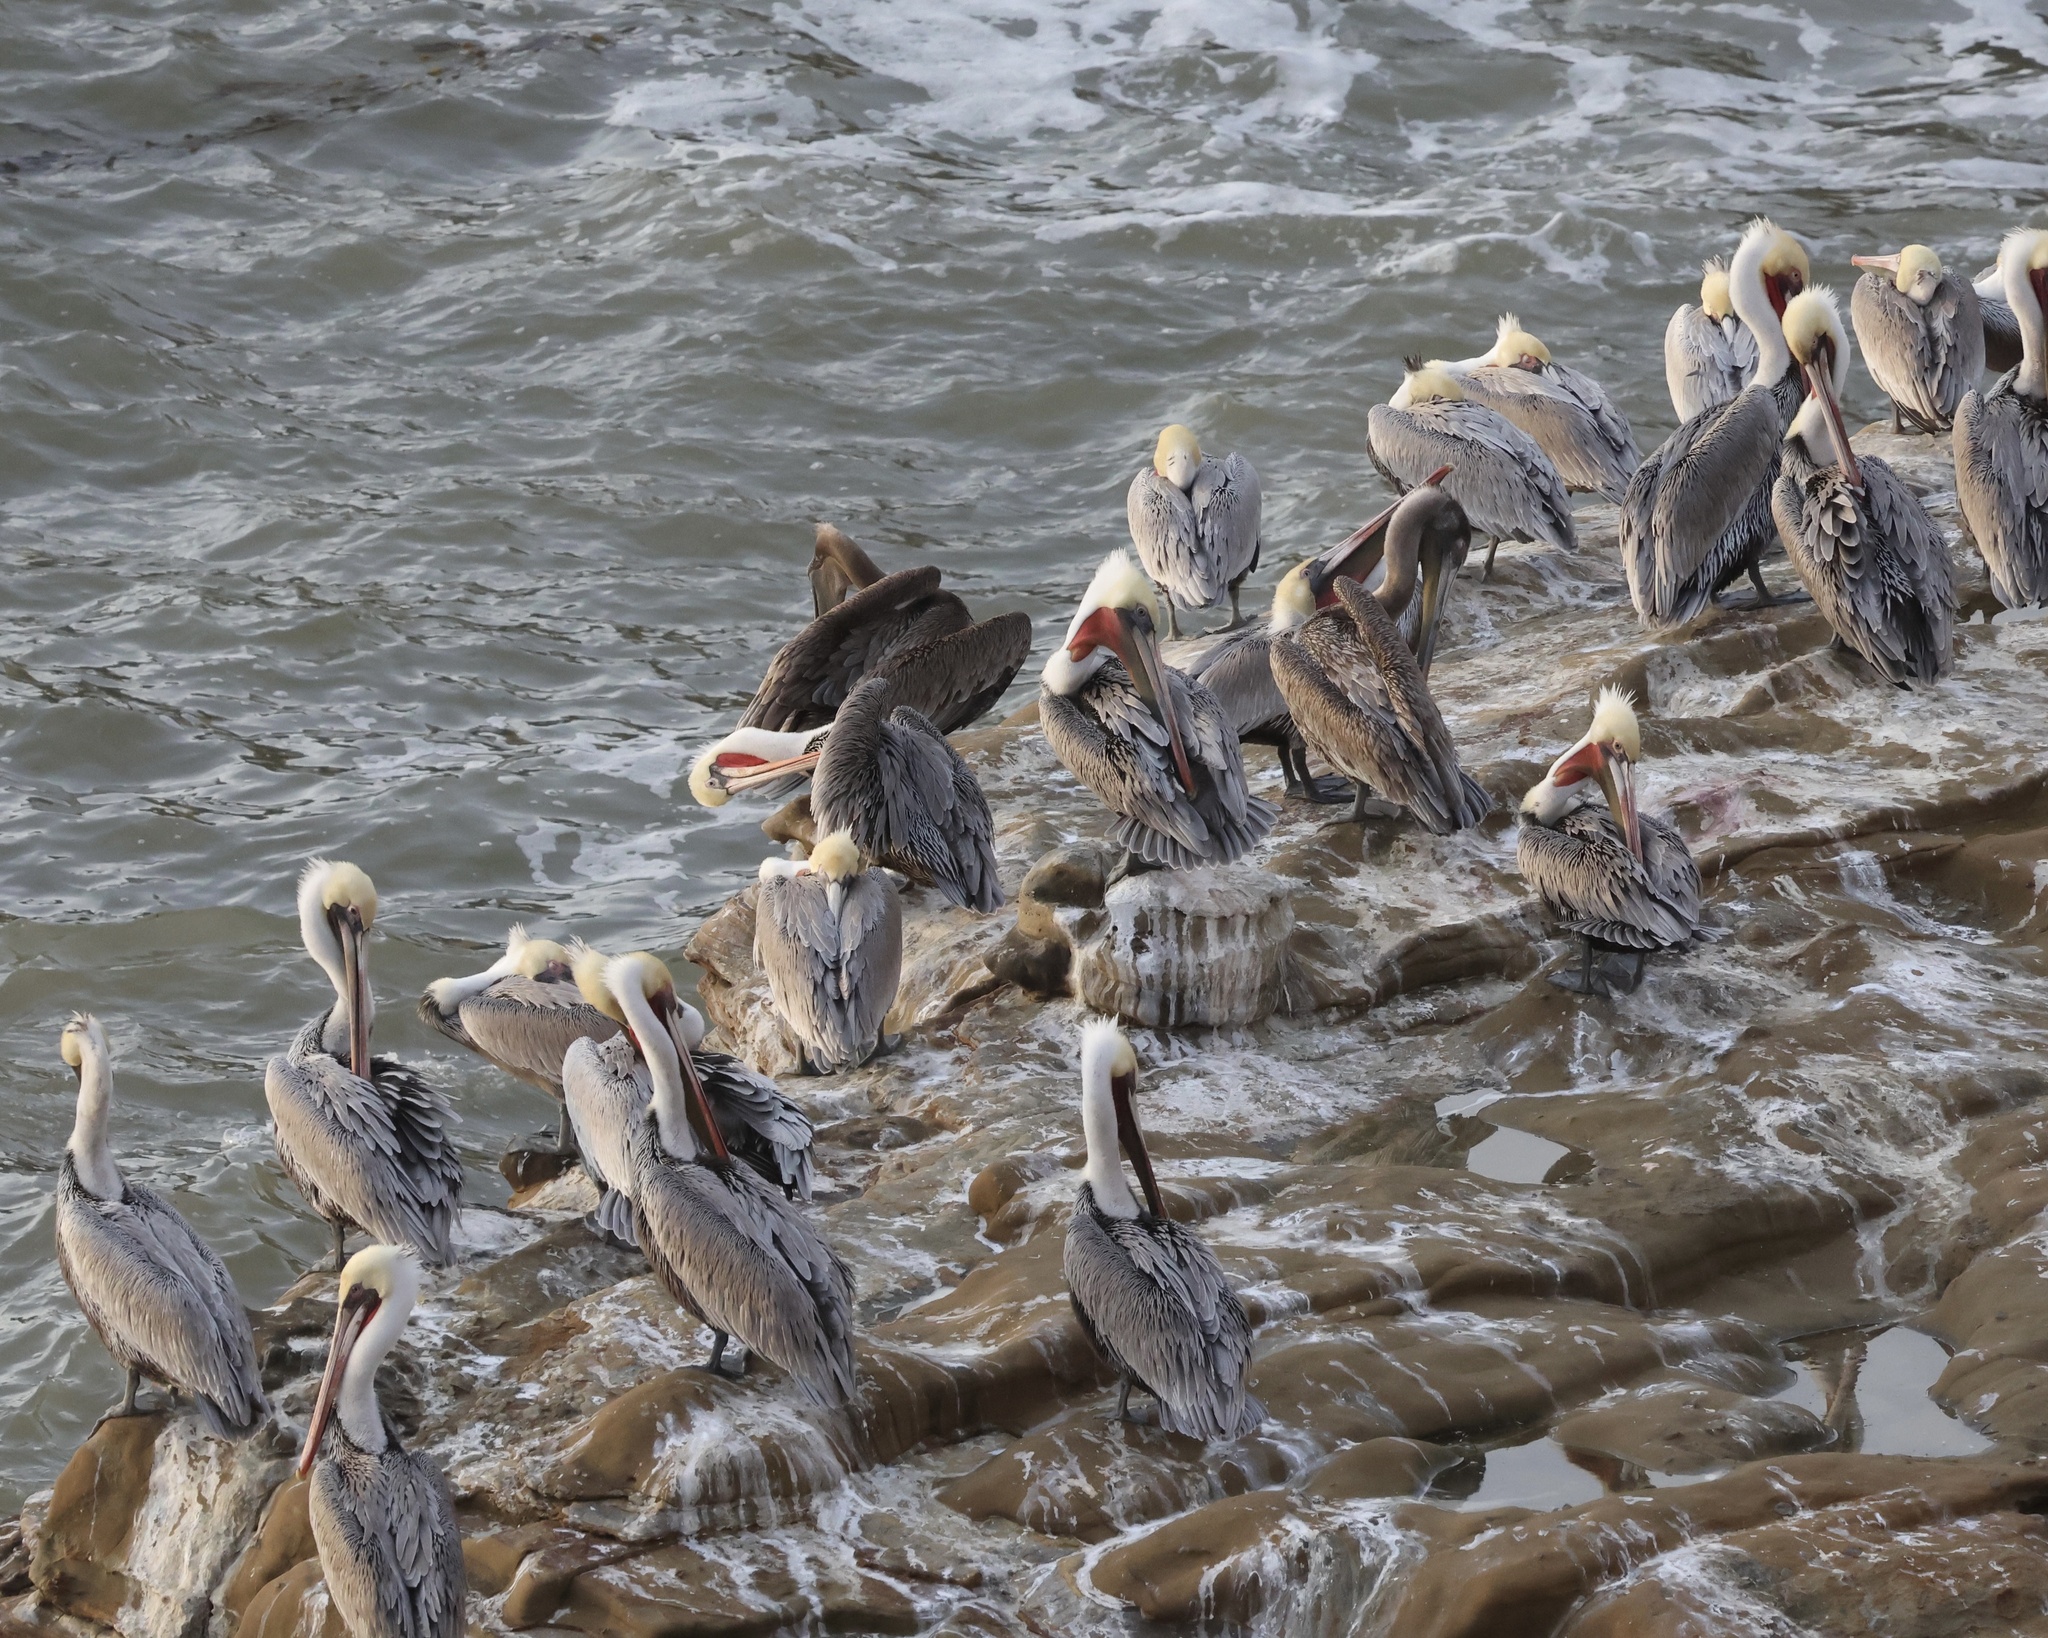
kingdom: Animalia
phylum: Chordata
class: Aves
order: Pelecaniformes
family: Pelecanidae
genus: Pelecanus
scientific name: Pelecanus occidentalis
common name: Brown pelican
